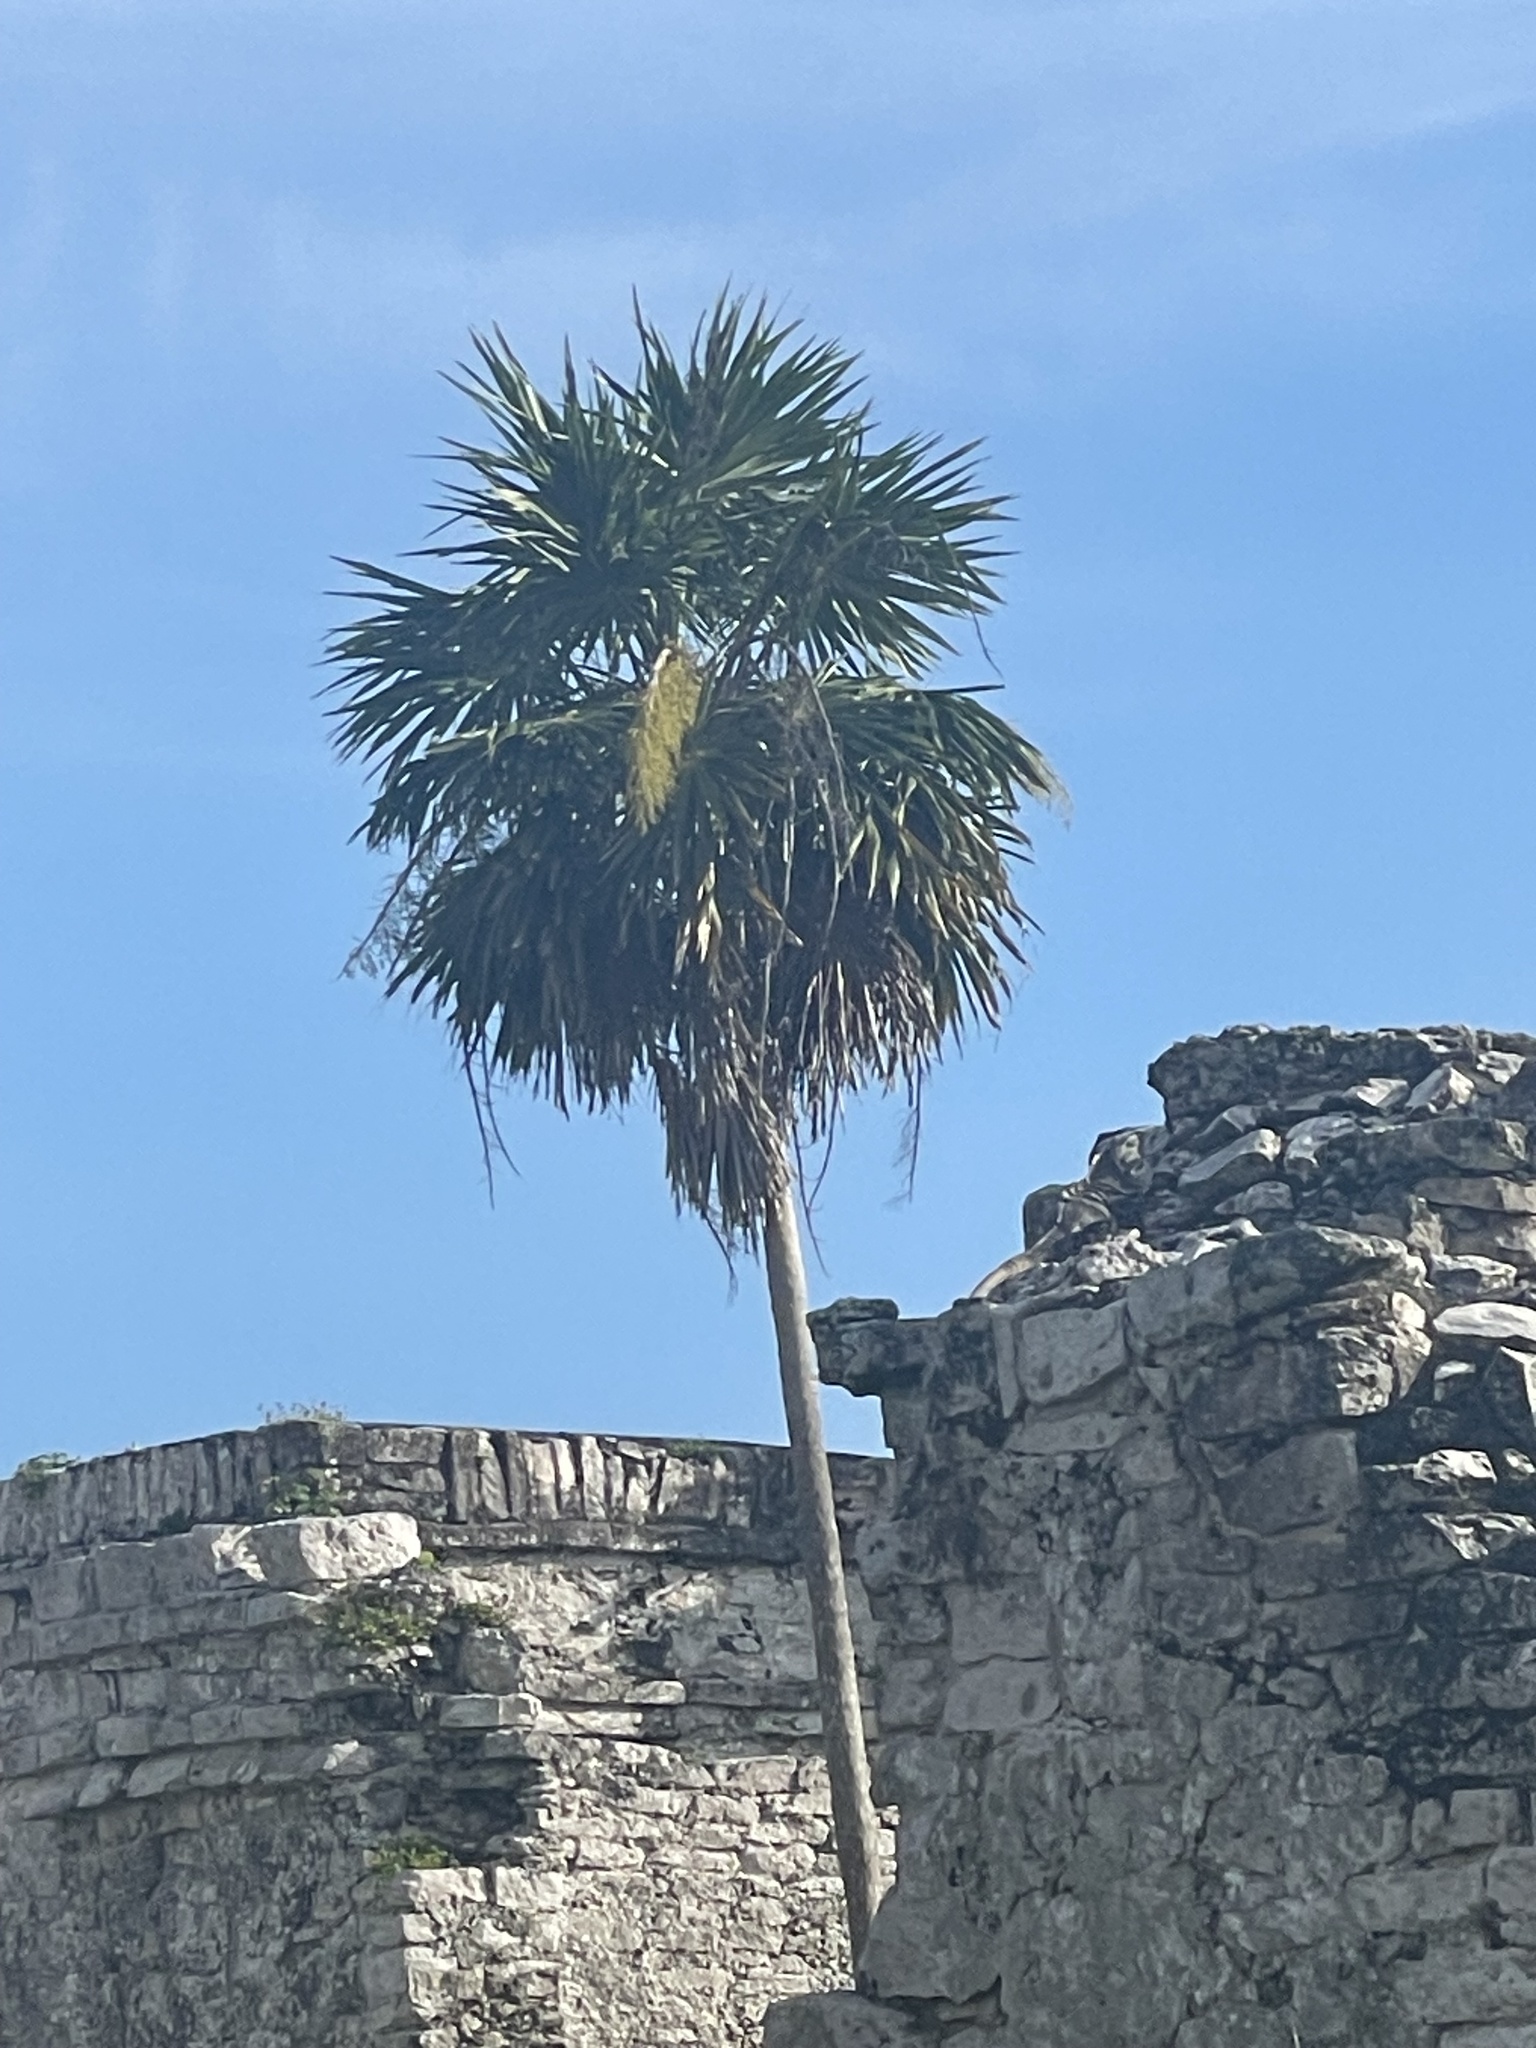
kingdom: Plantae
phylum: Tracheophyta
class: Liliopsida
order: Arecales
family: Arecaceae
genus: Thrinax
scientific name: Thrinax radiata
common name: Florida thatch
